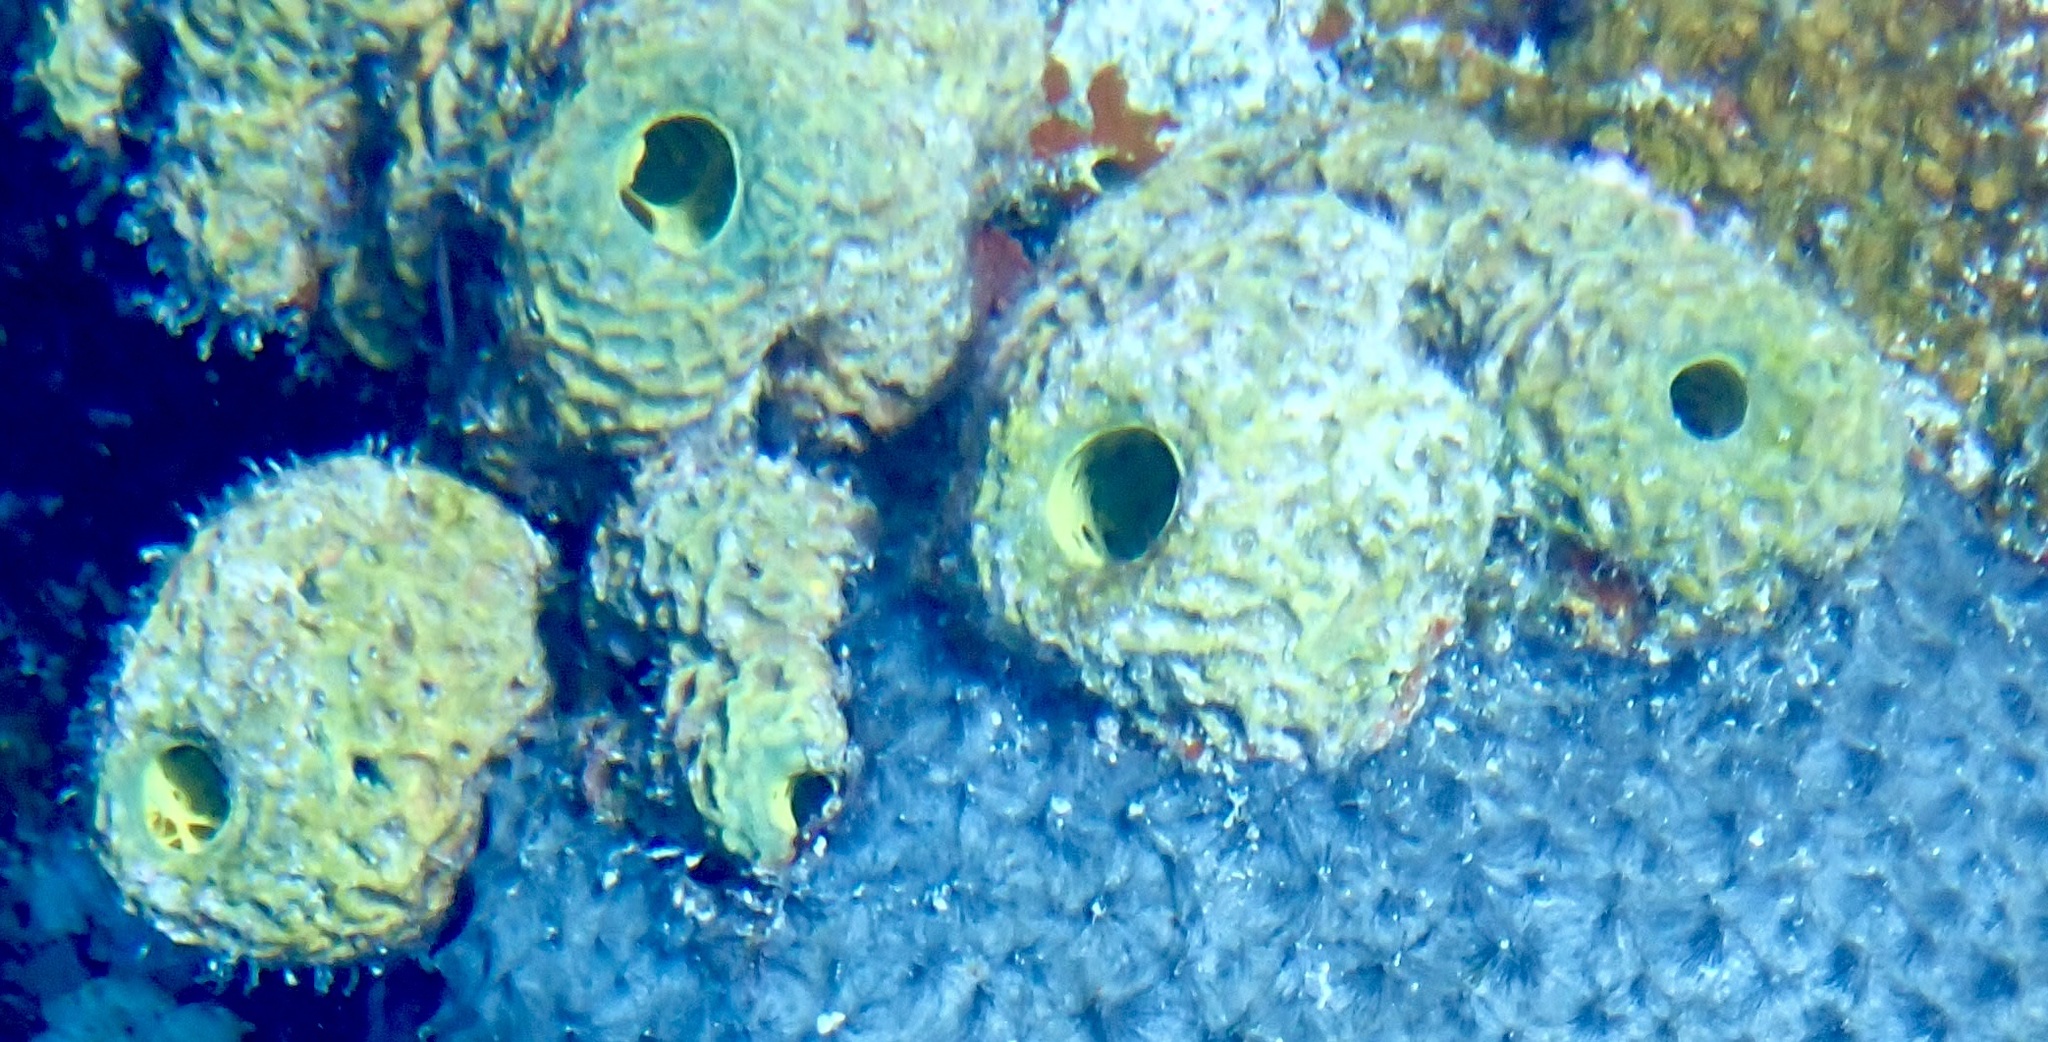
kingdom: Animalia
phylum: Porifera
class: Demospongiae
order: Verongiida
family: Aplysinidae
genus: Verongula
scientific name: Verongula rigida
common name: Pitted sponge
